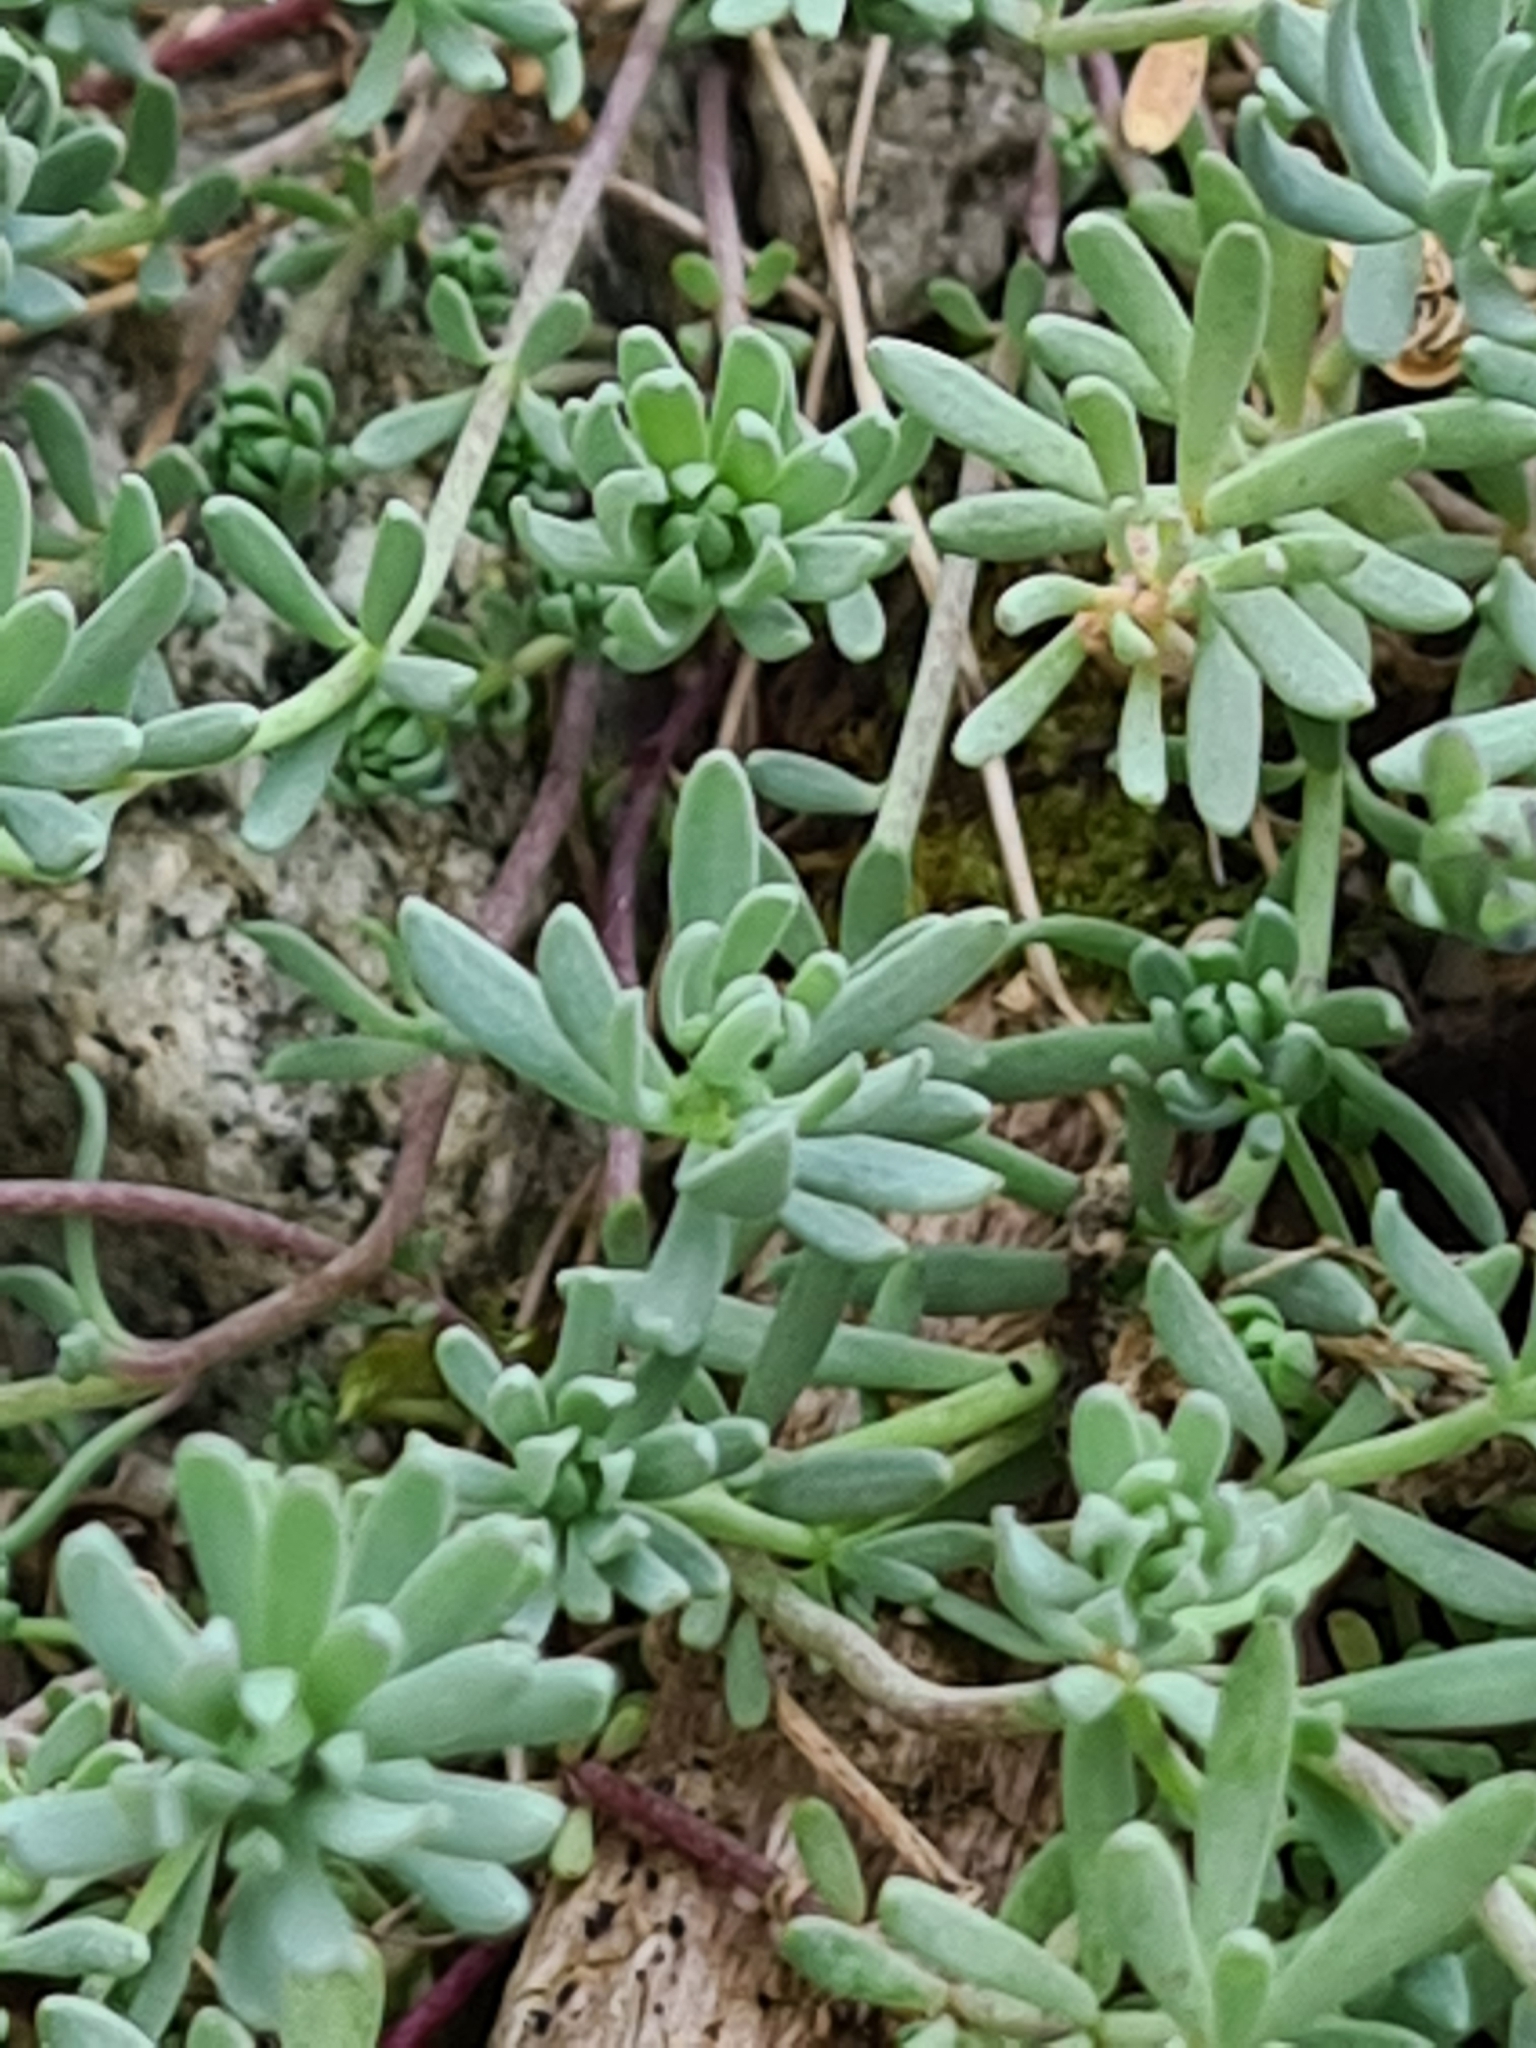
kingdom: Plantae
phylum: Tracheophyta
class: Magnoliopsida
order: Lamiales
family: Plantaginaceae
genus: Linaria
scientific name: Linaria alpina
